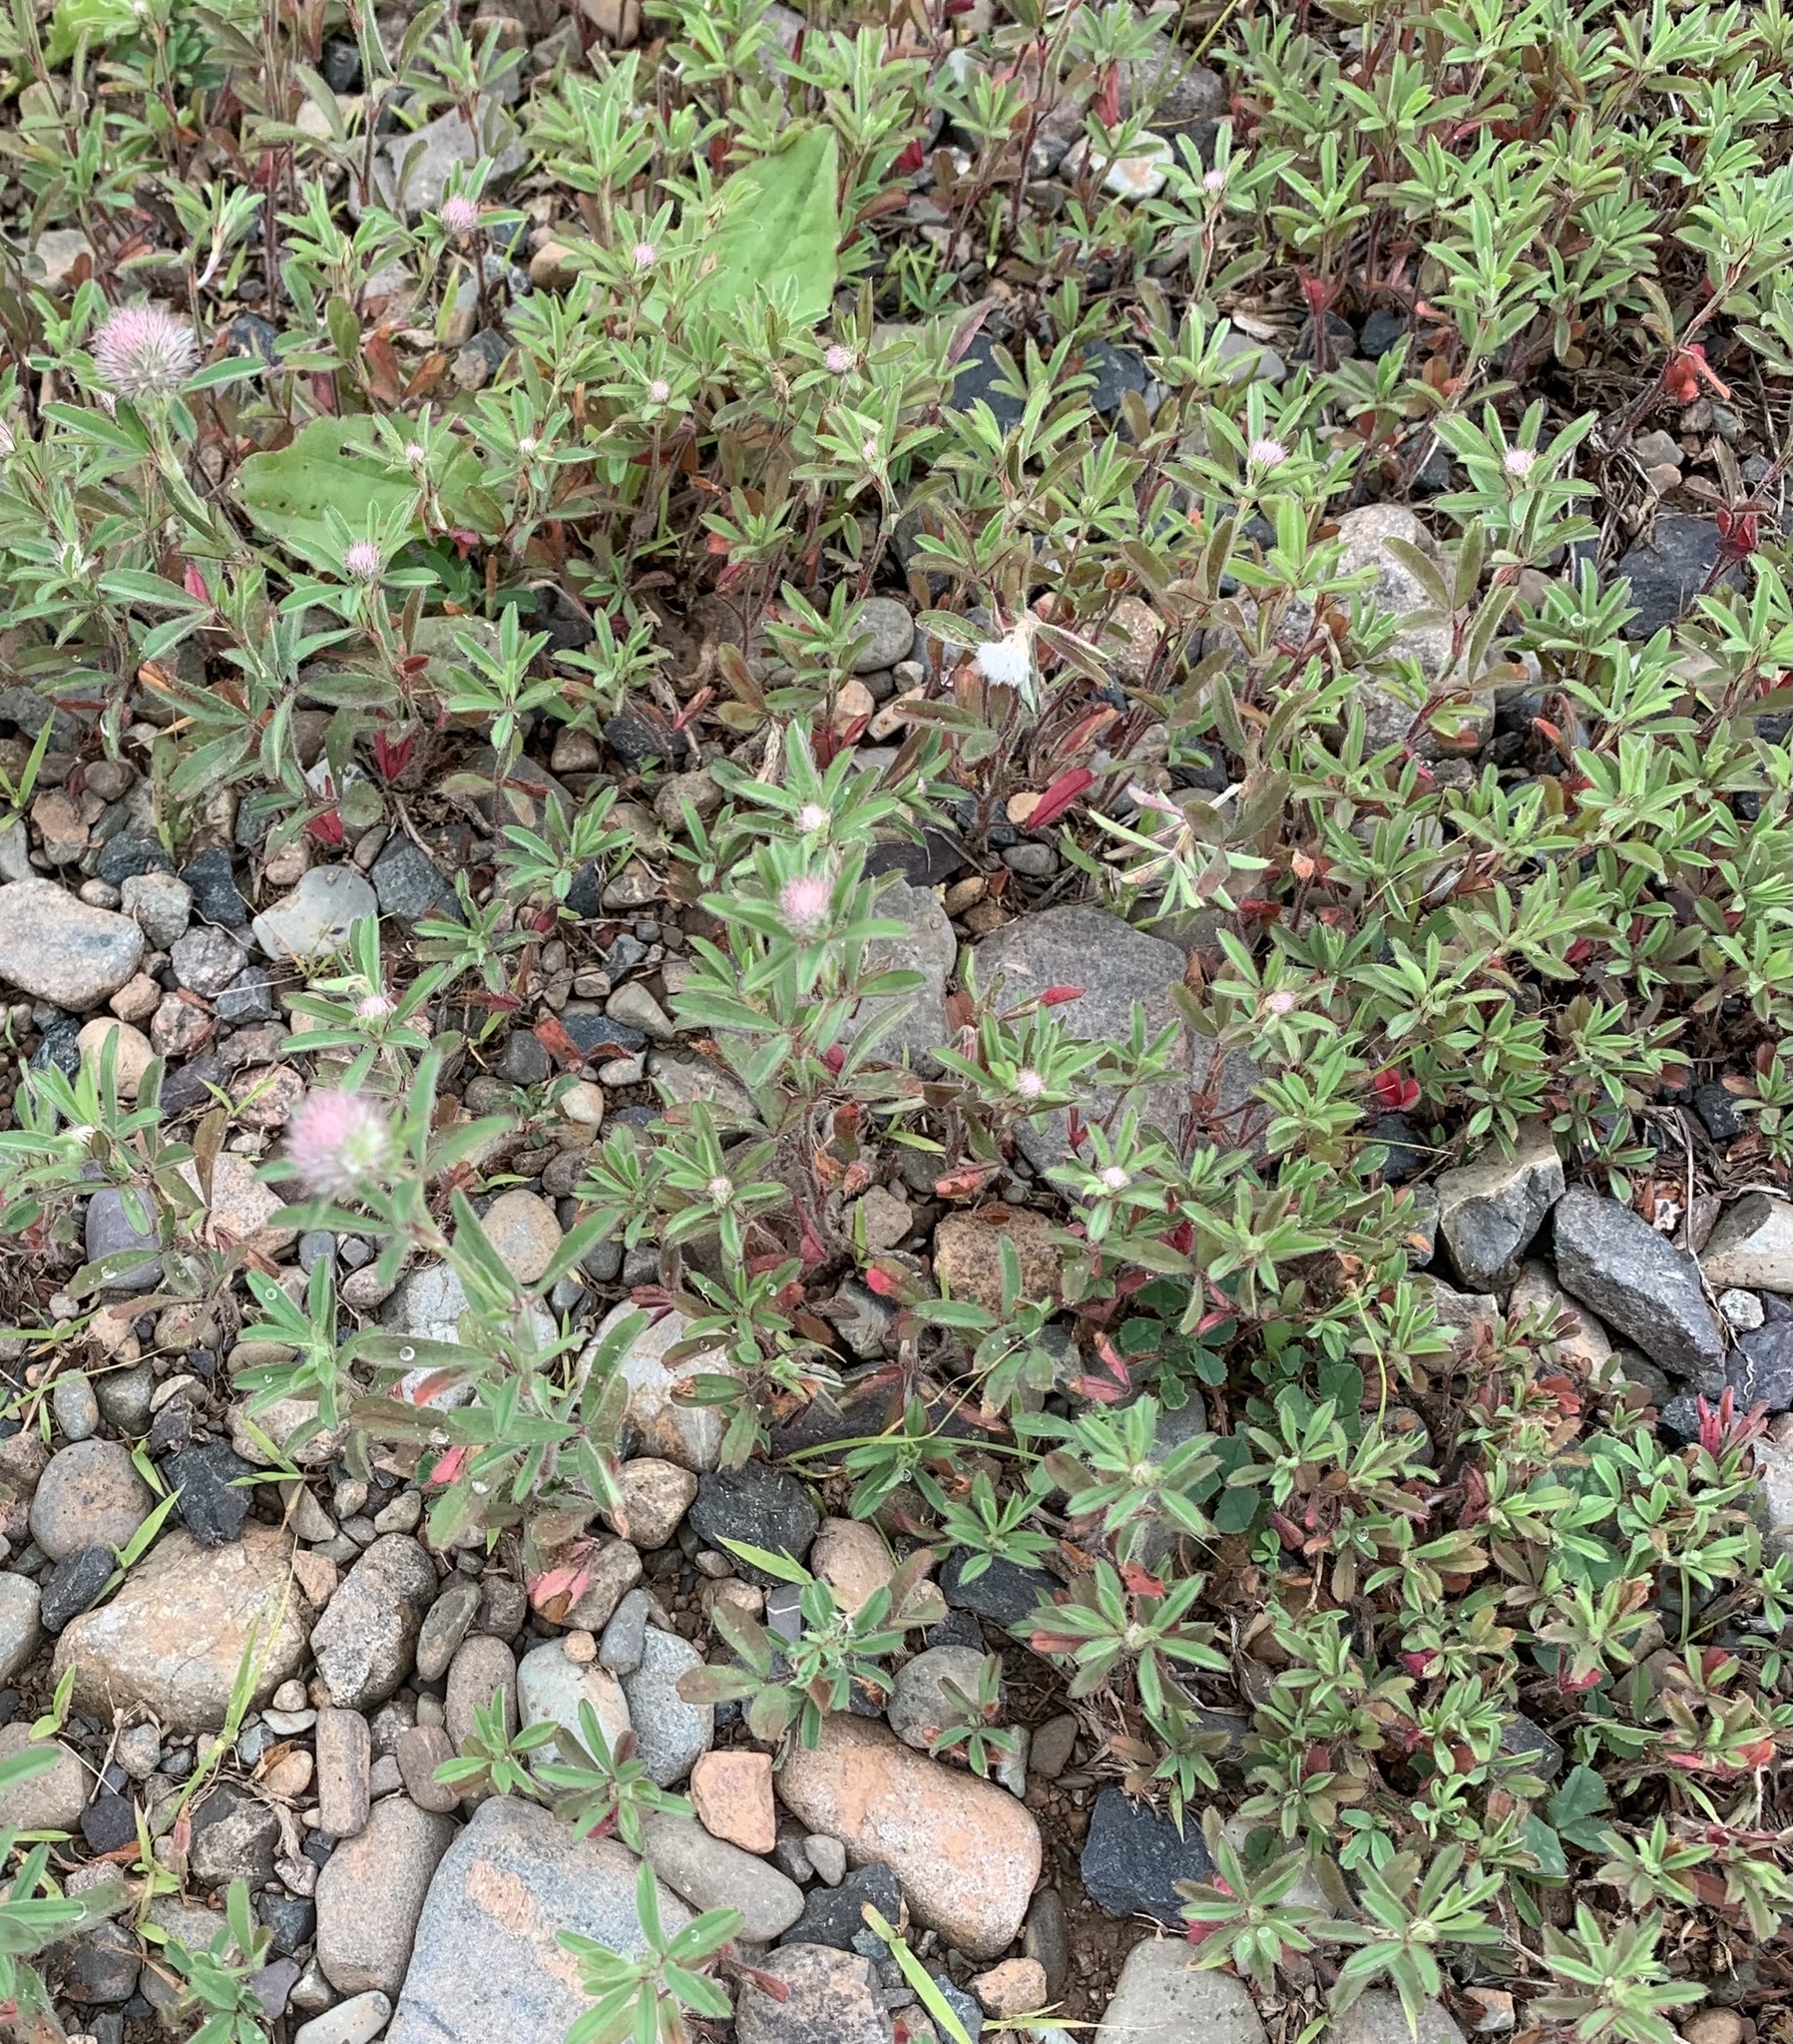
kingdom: Plantae
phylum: Tracheophyta
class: Magnoliopsida
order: Fabales
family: Fabaceae
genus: Trifolium
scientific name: Trifolium arvense
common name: Hare's-foot clover
